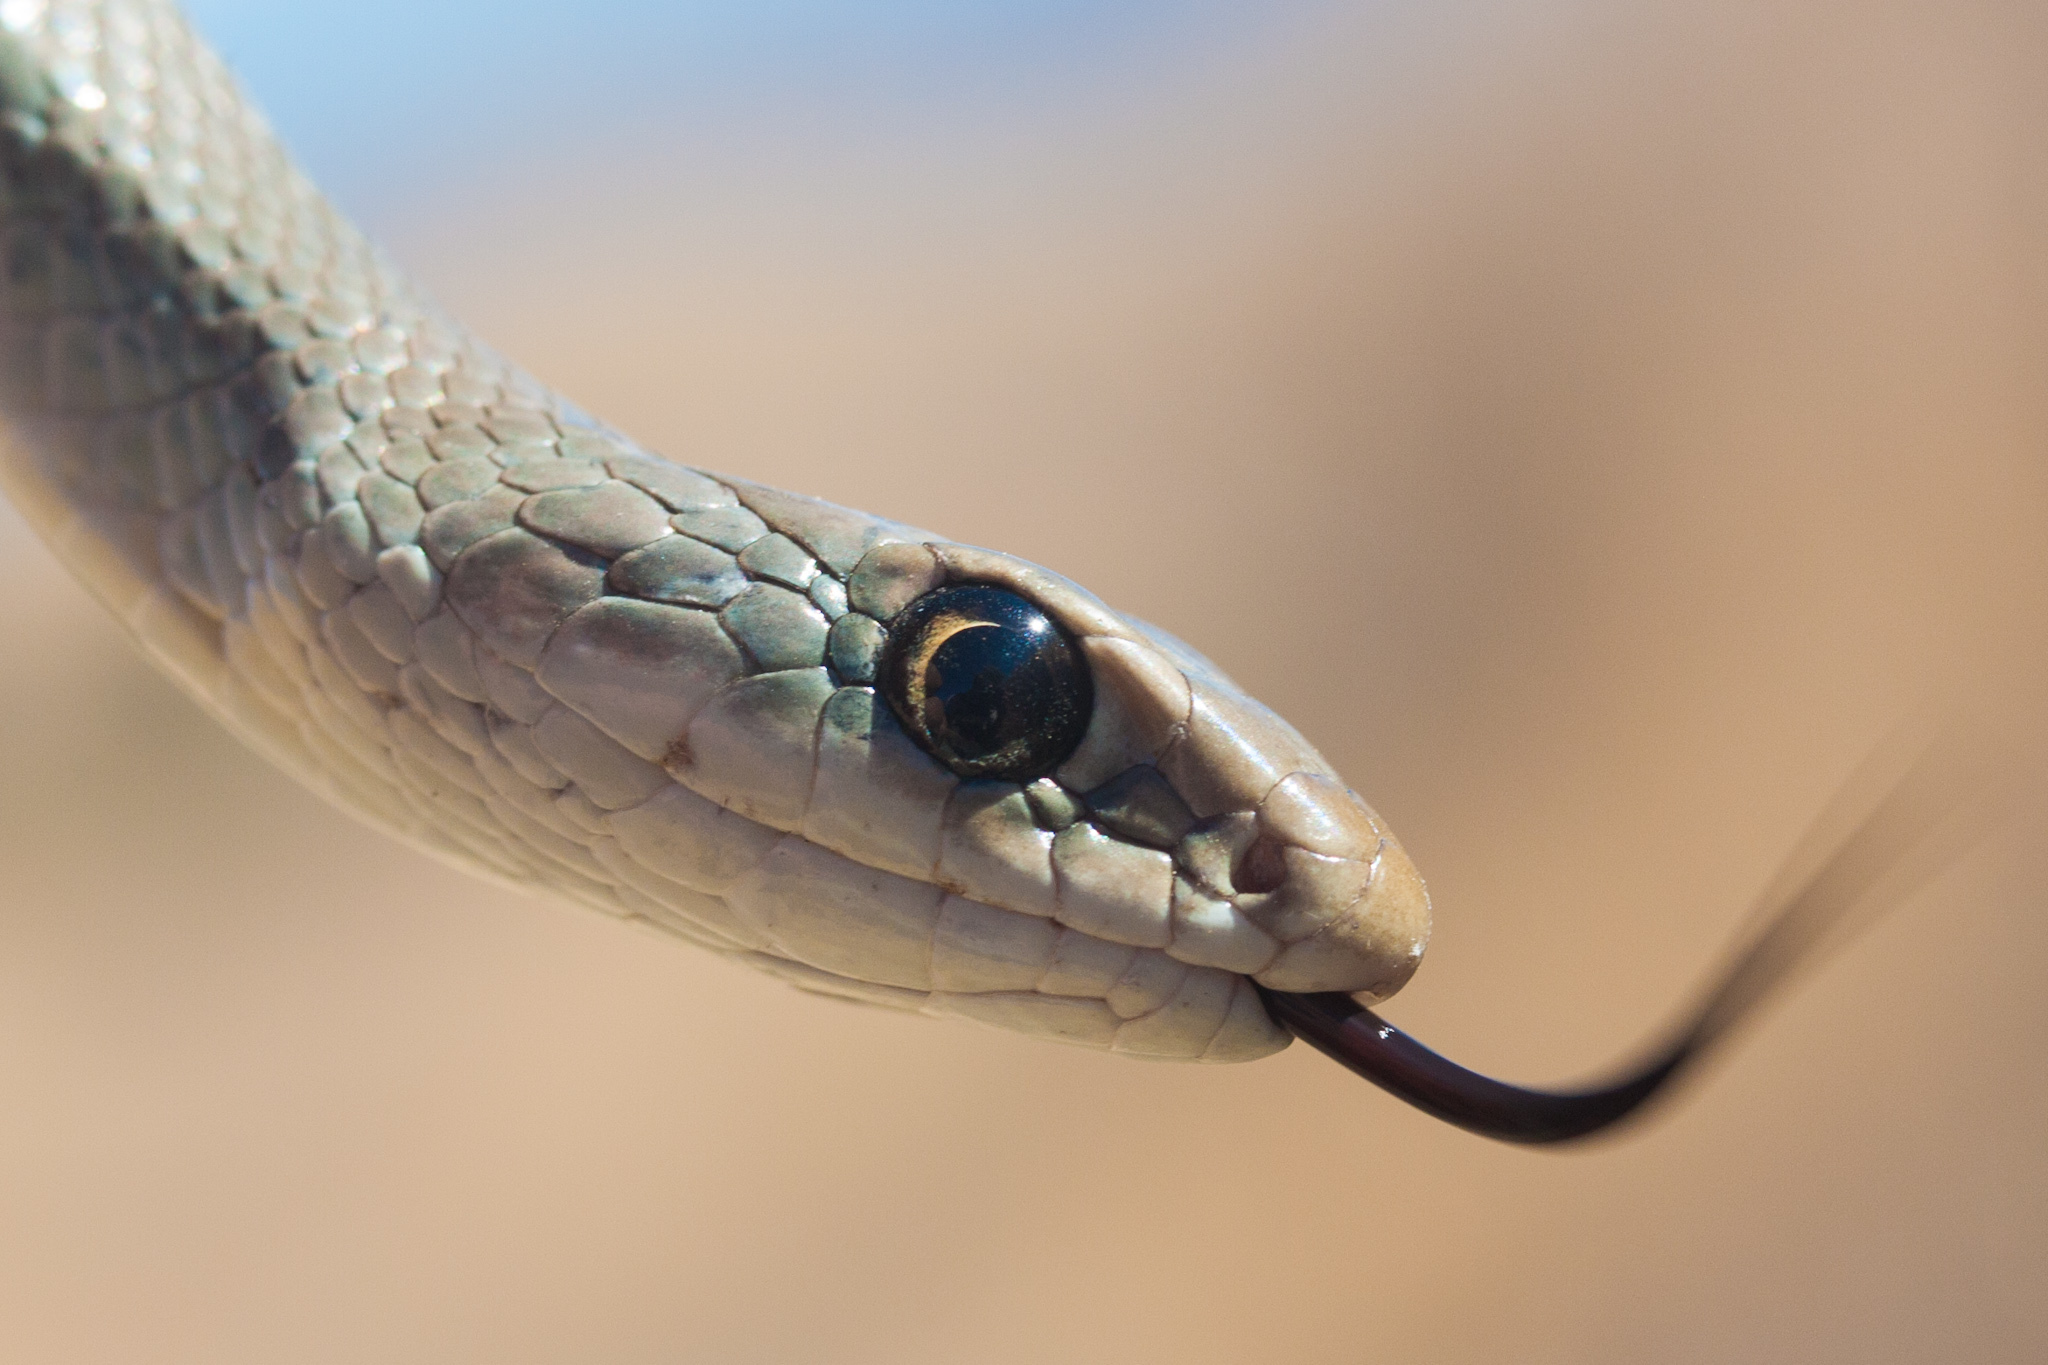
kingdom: Animalia
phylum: Chordata
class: Squamata
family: Colubridae
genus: Coluber
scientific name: Coluber constrictor
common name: Eastern racer
